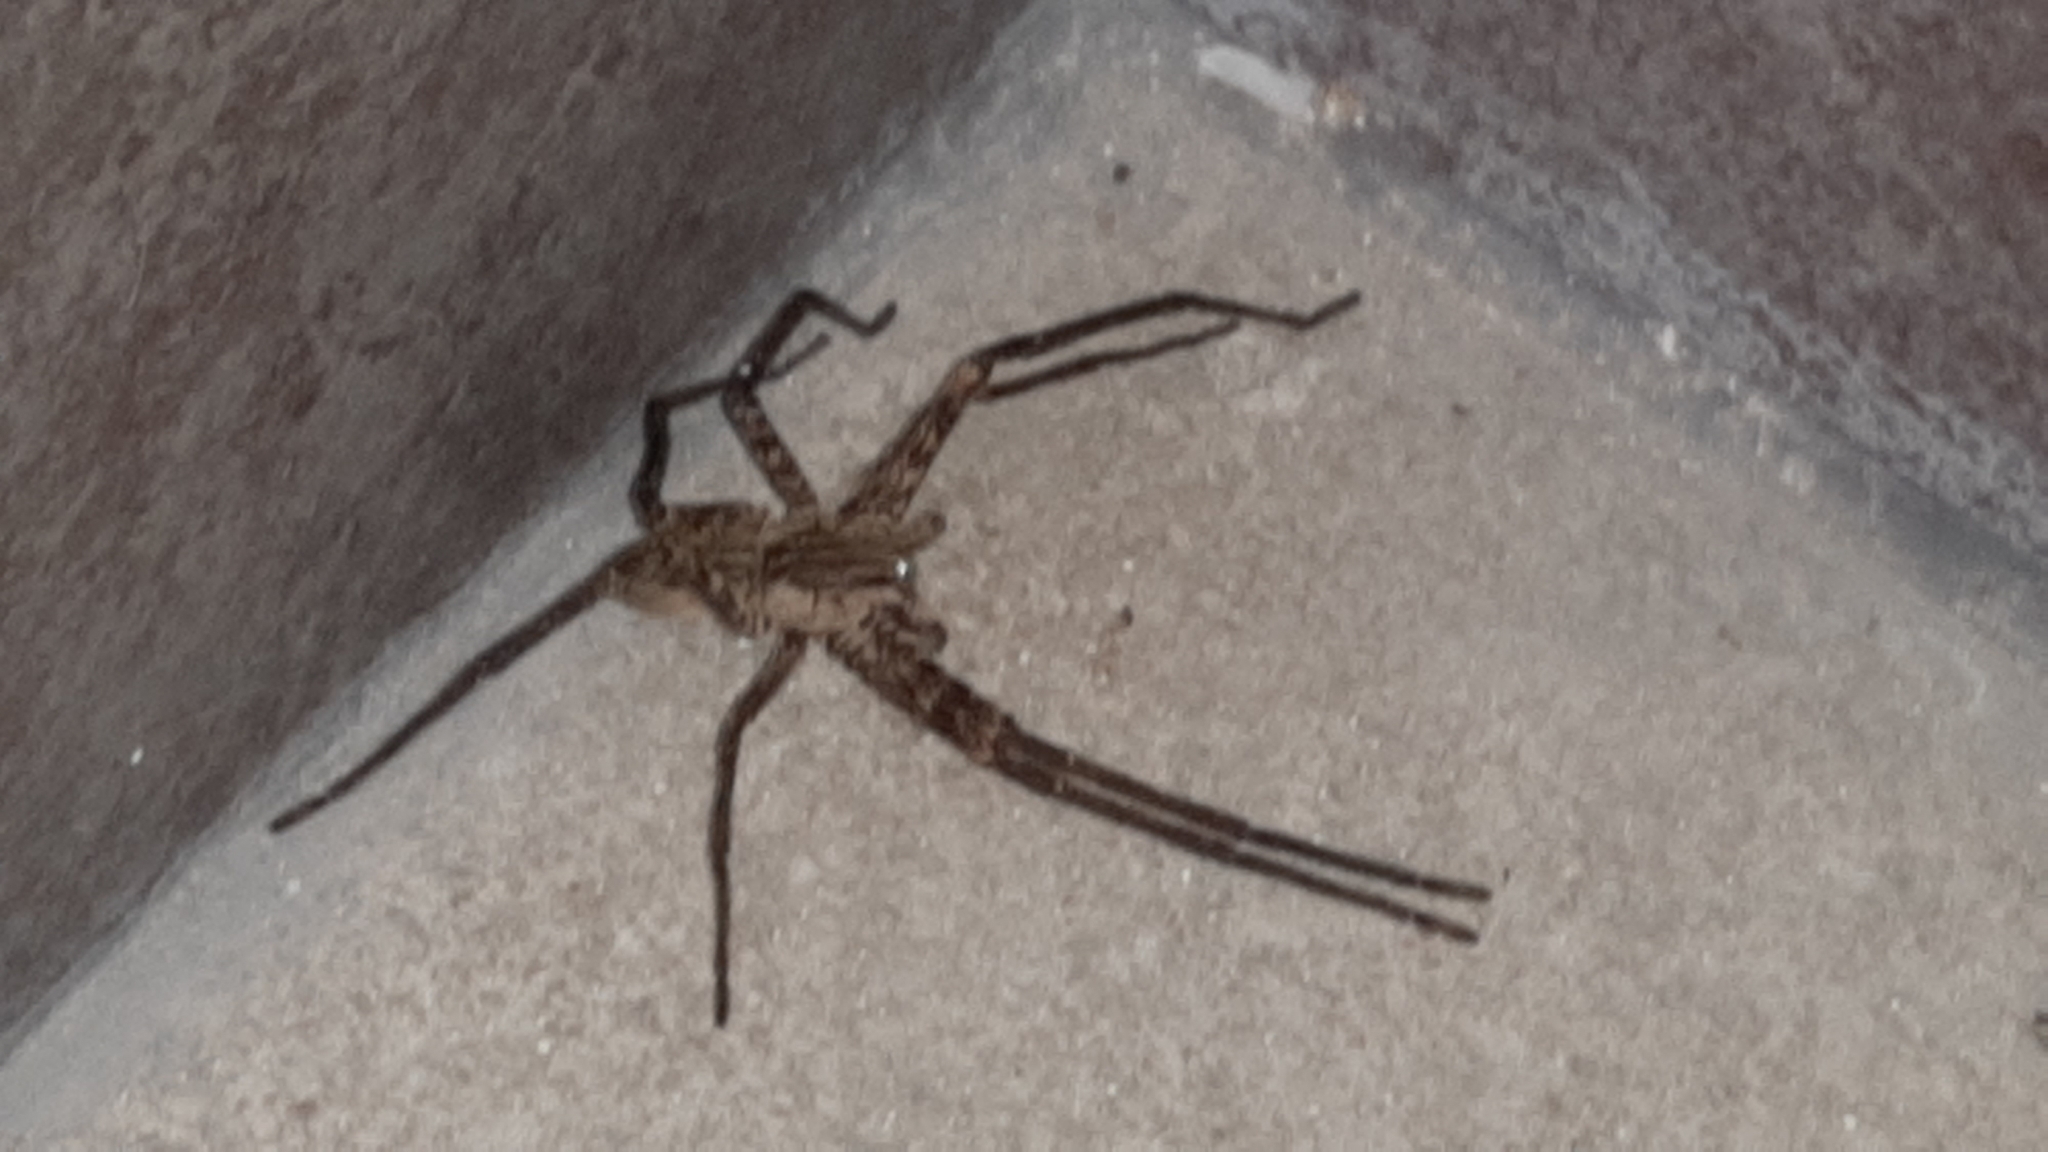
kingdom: Animalia
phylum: Arthropoda
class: Arachnida
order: Araneae
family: Trechaleidae
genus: Cupiennius
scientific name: Cupiennius coccineus
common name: Wandering spiders
